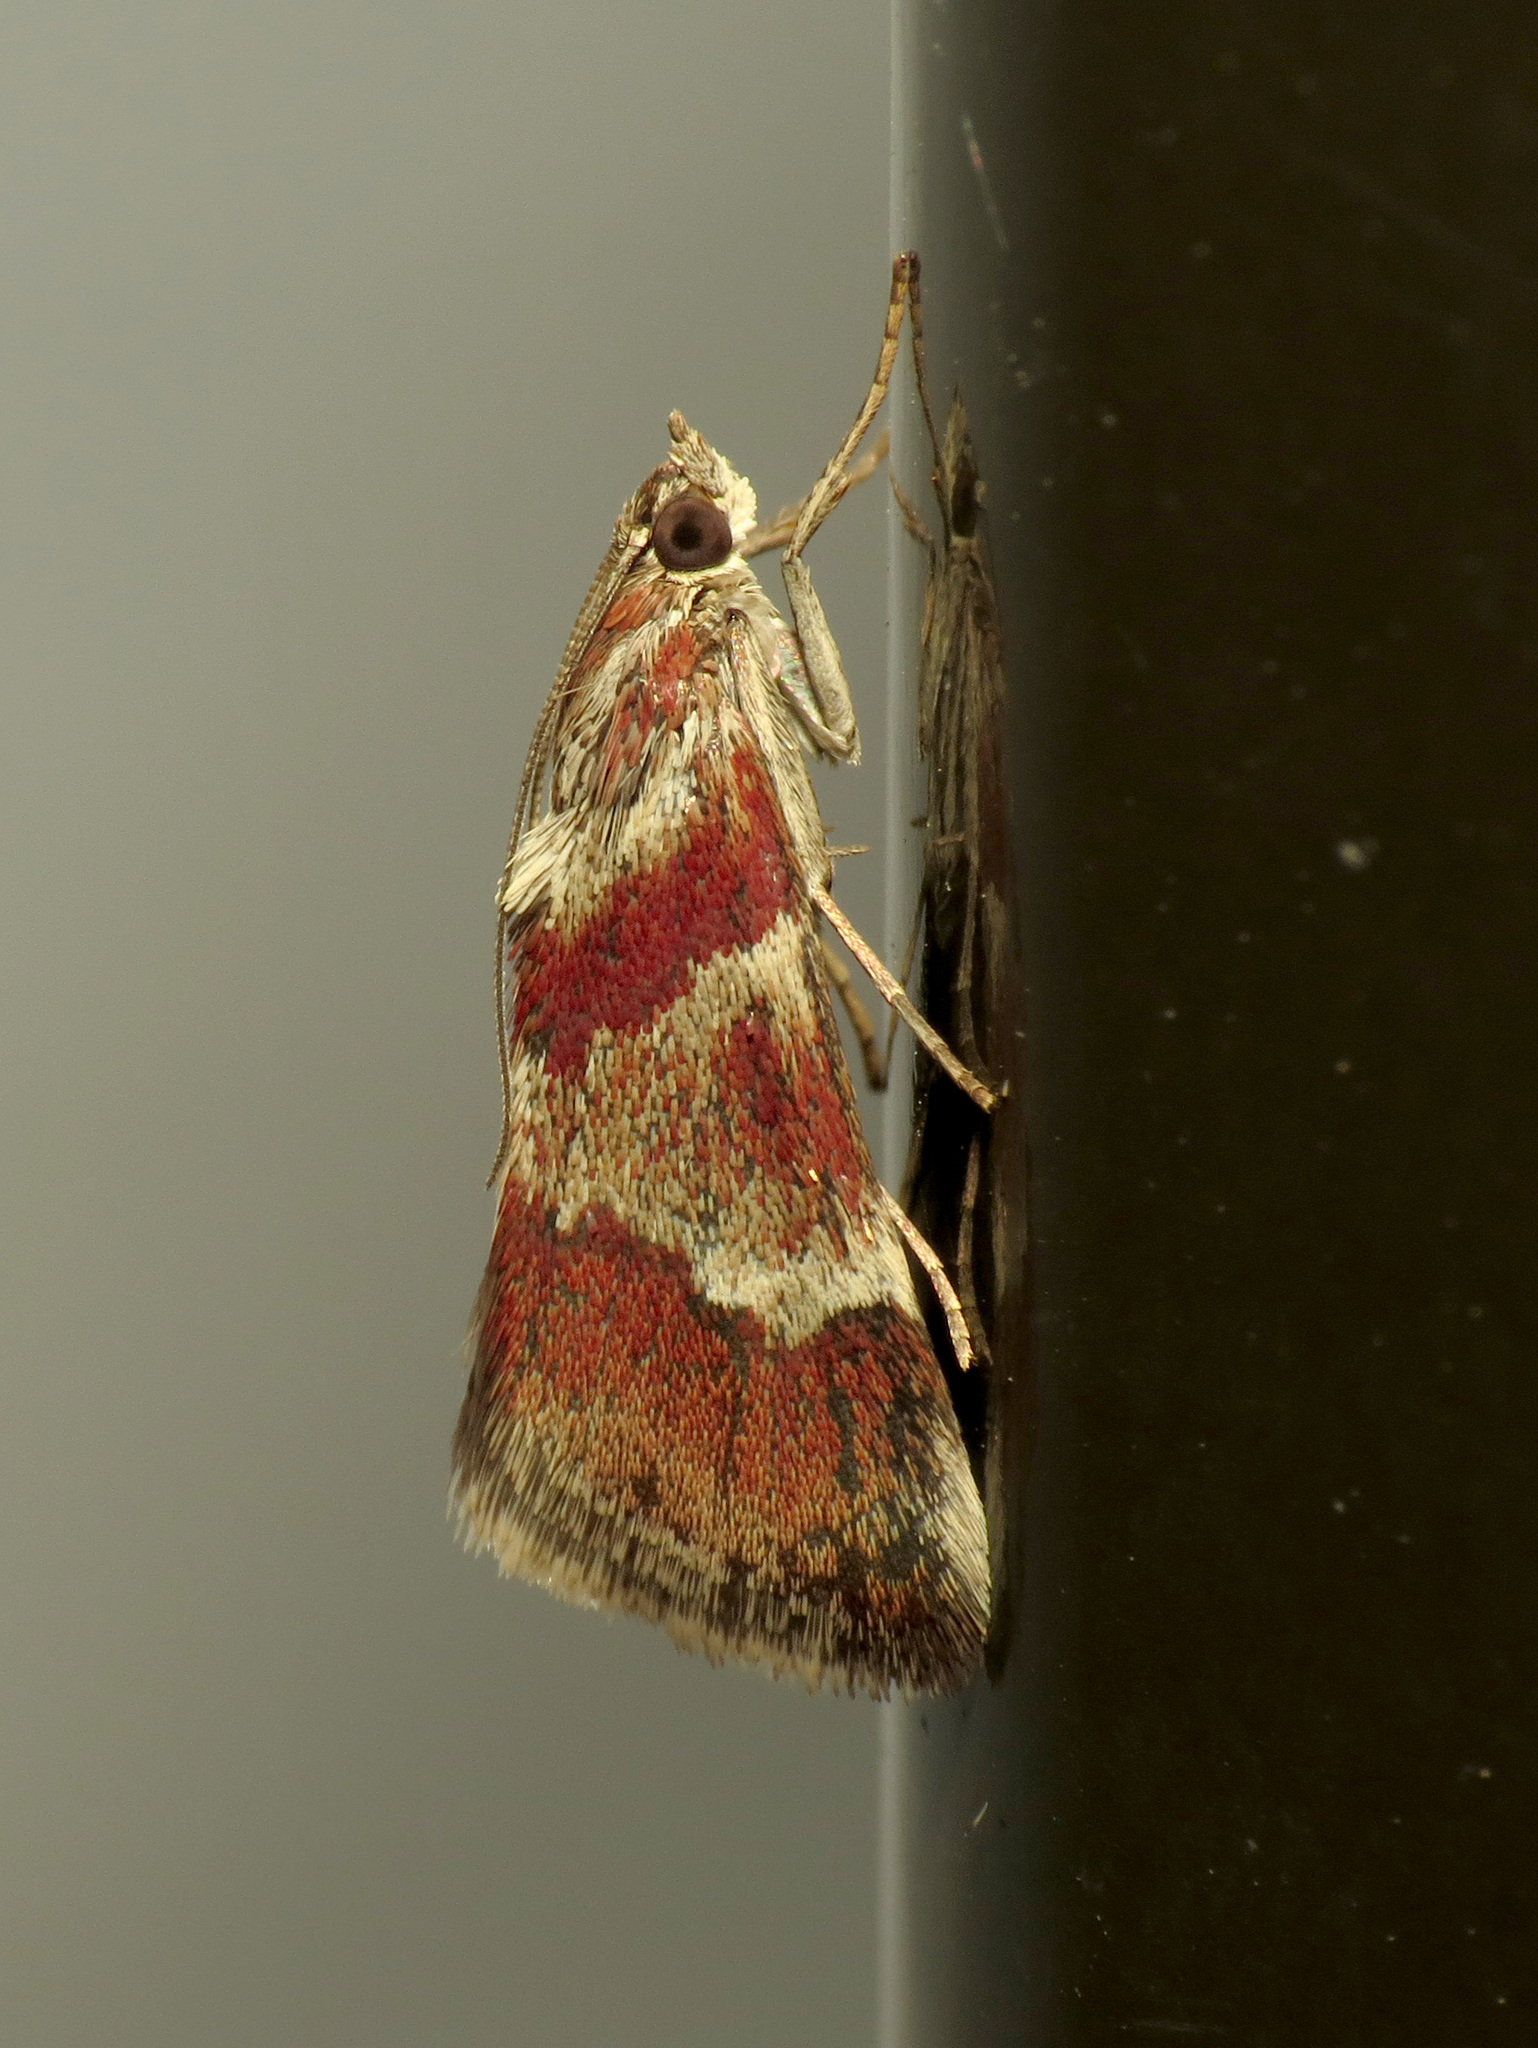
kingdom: Animalia
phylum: Arthropoda
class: Insecta
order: Lepidoptera
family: Crambidae
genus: Noctuelia
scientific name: Noctuelia Mimoschinia rufofascialis
